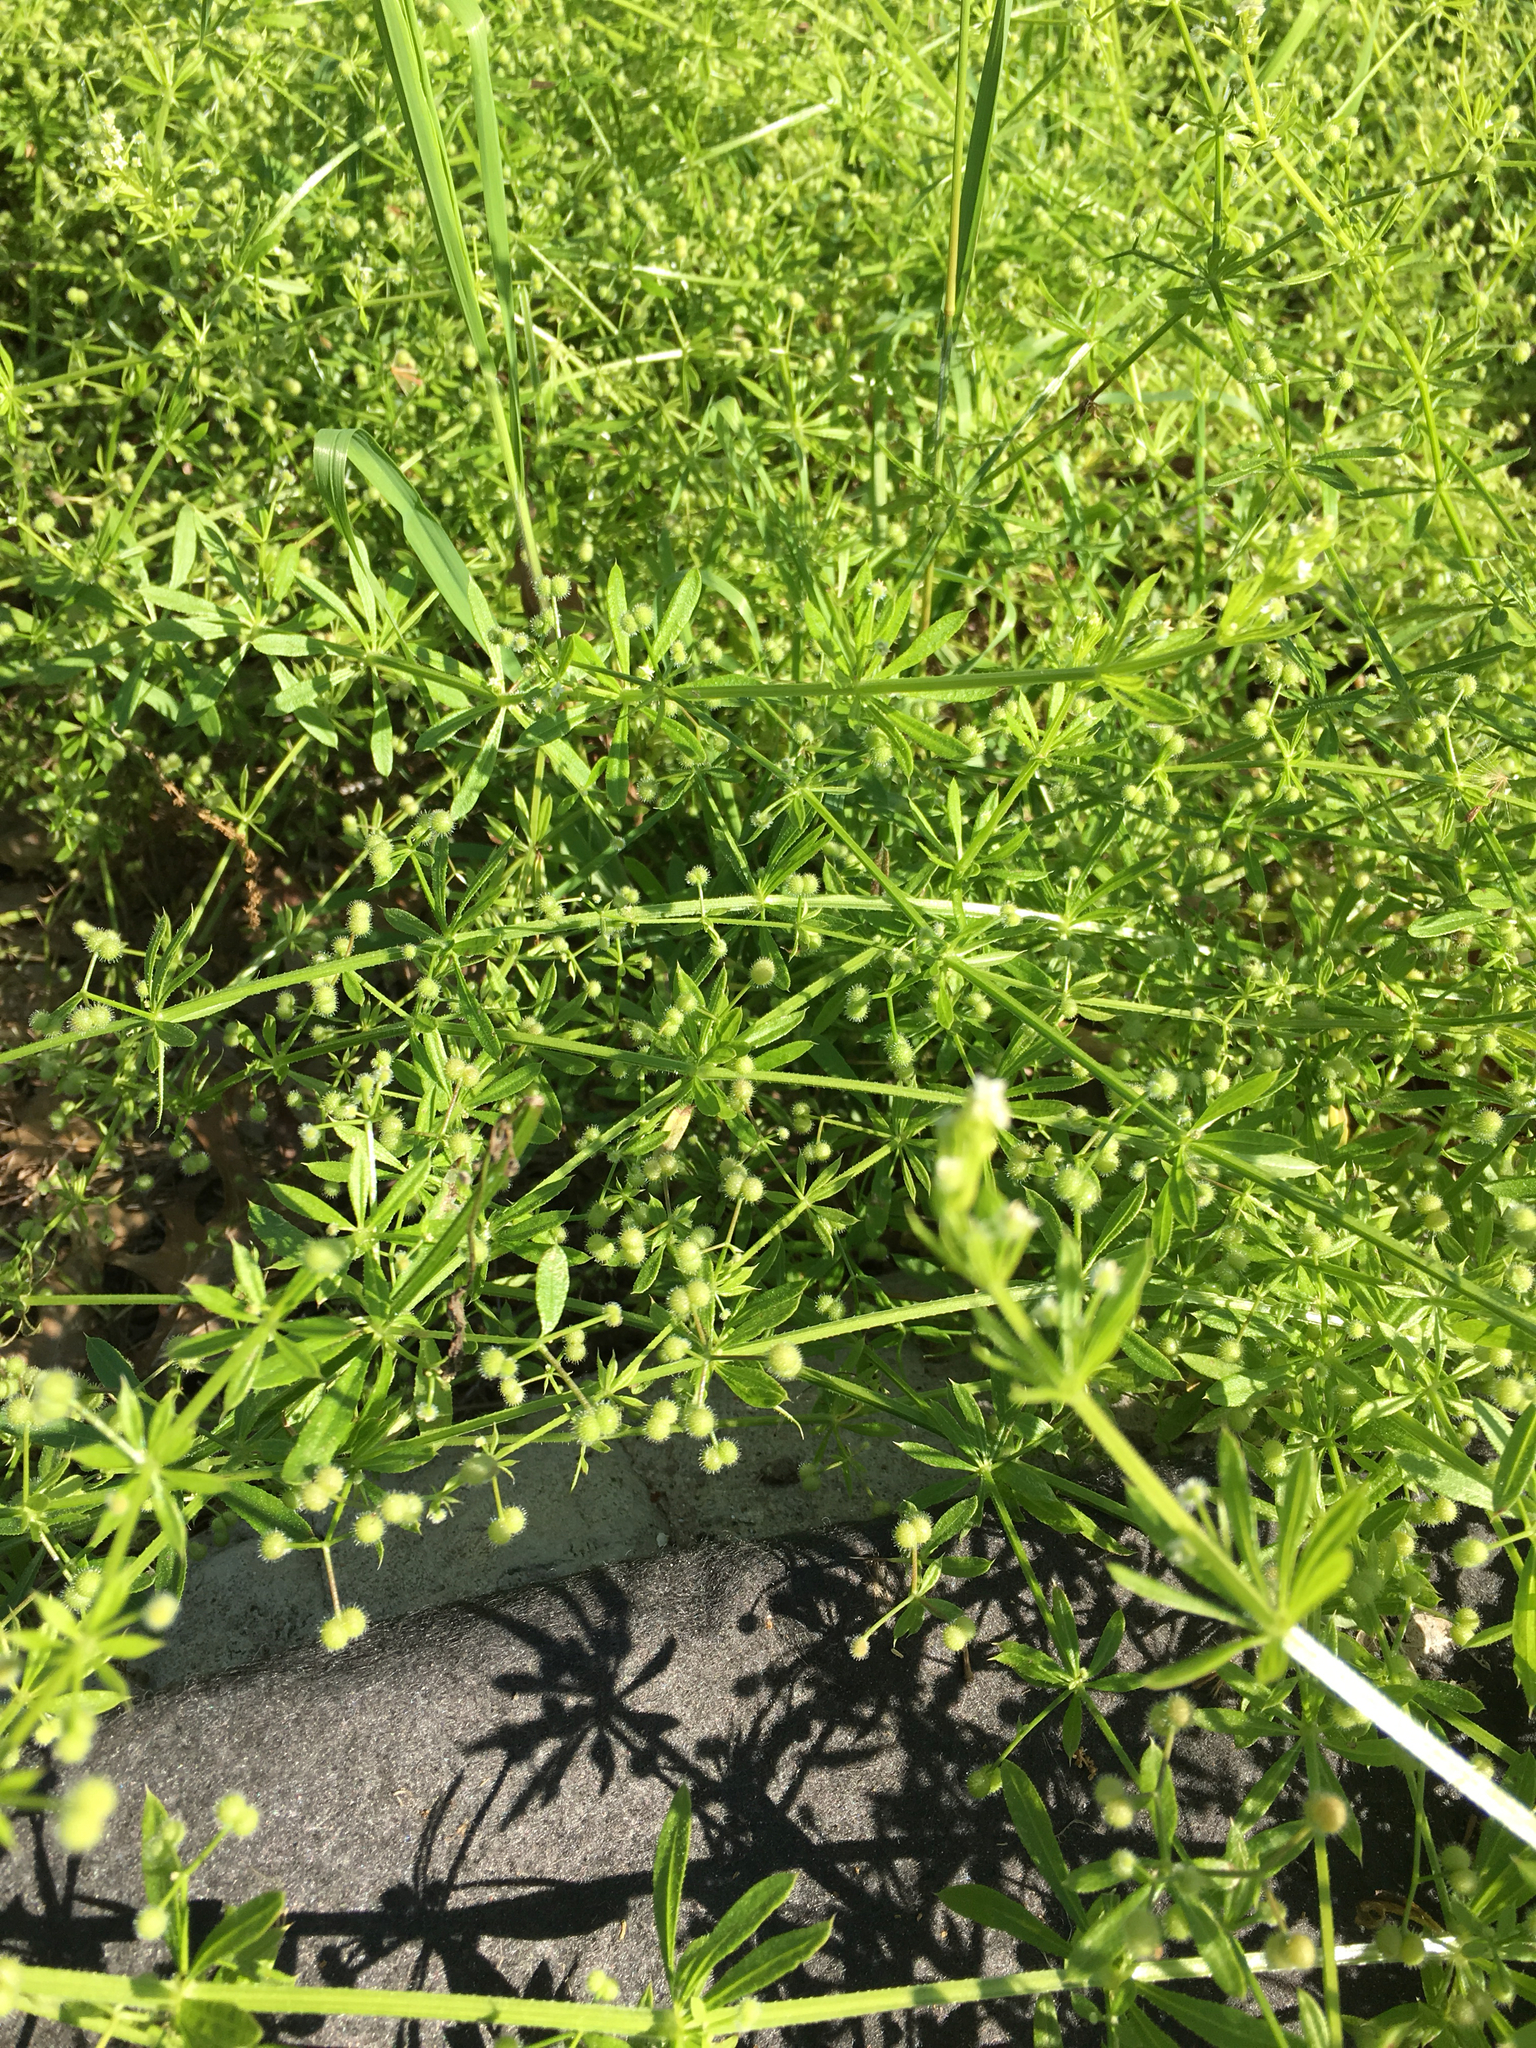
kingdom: Plantae
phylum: Tracheophyta
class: Magnoliopsida
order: Gentianales
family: Rubiaceae
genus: Galium
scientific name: Galium aparine
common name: Cleavers
